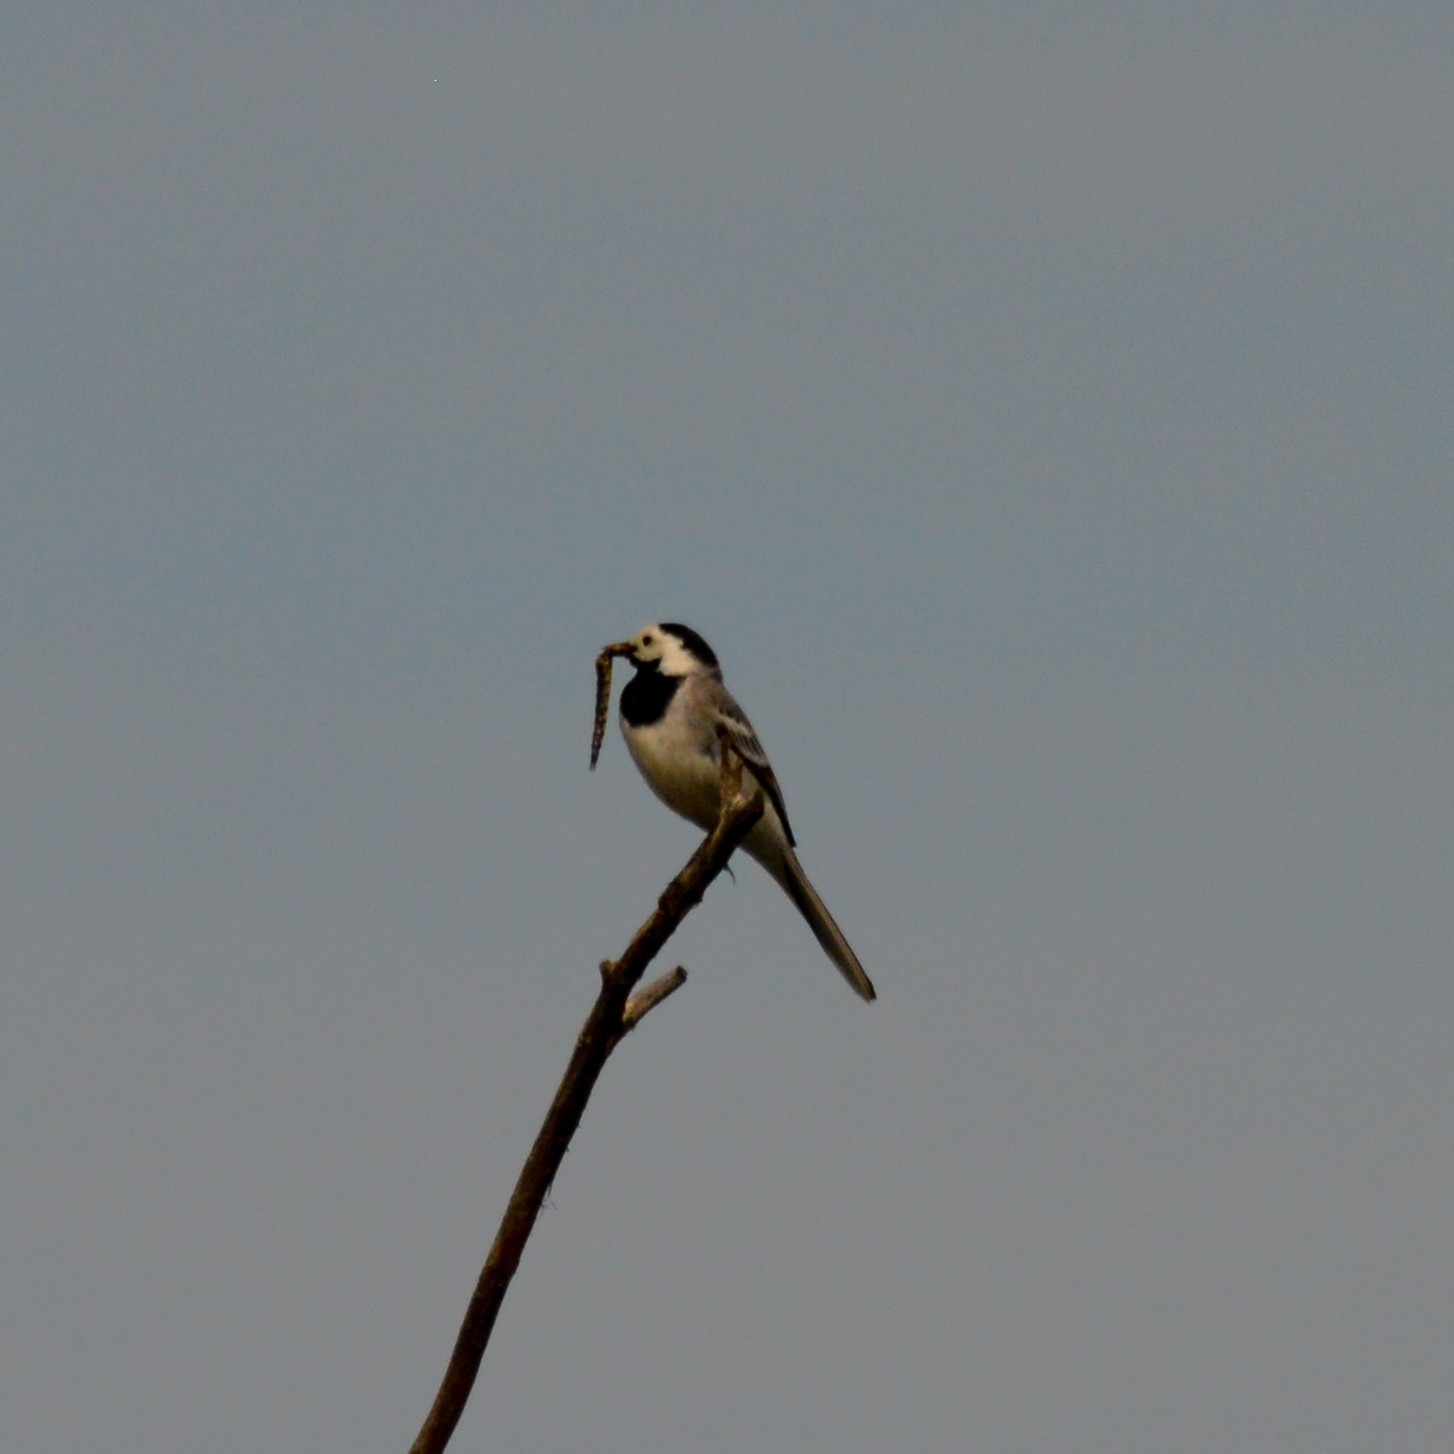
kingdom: Animalia
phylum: Chordata
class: Aves
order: Passeriformes
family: Motacillidae
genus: Motacilla
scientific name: Motacilla alba
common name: White wagtail
